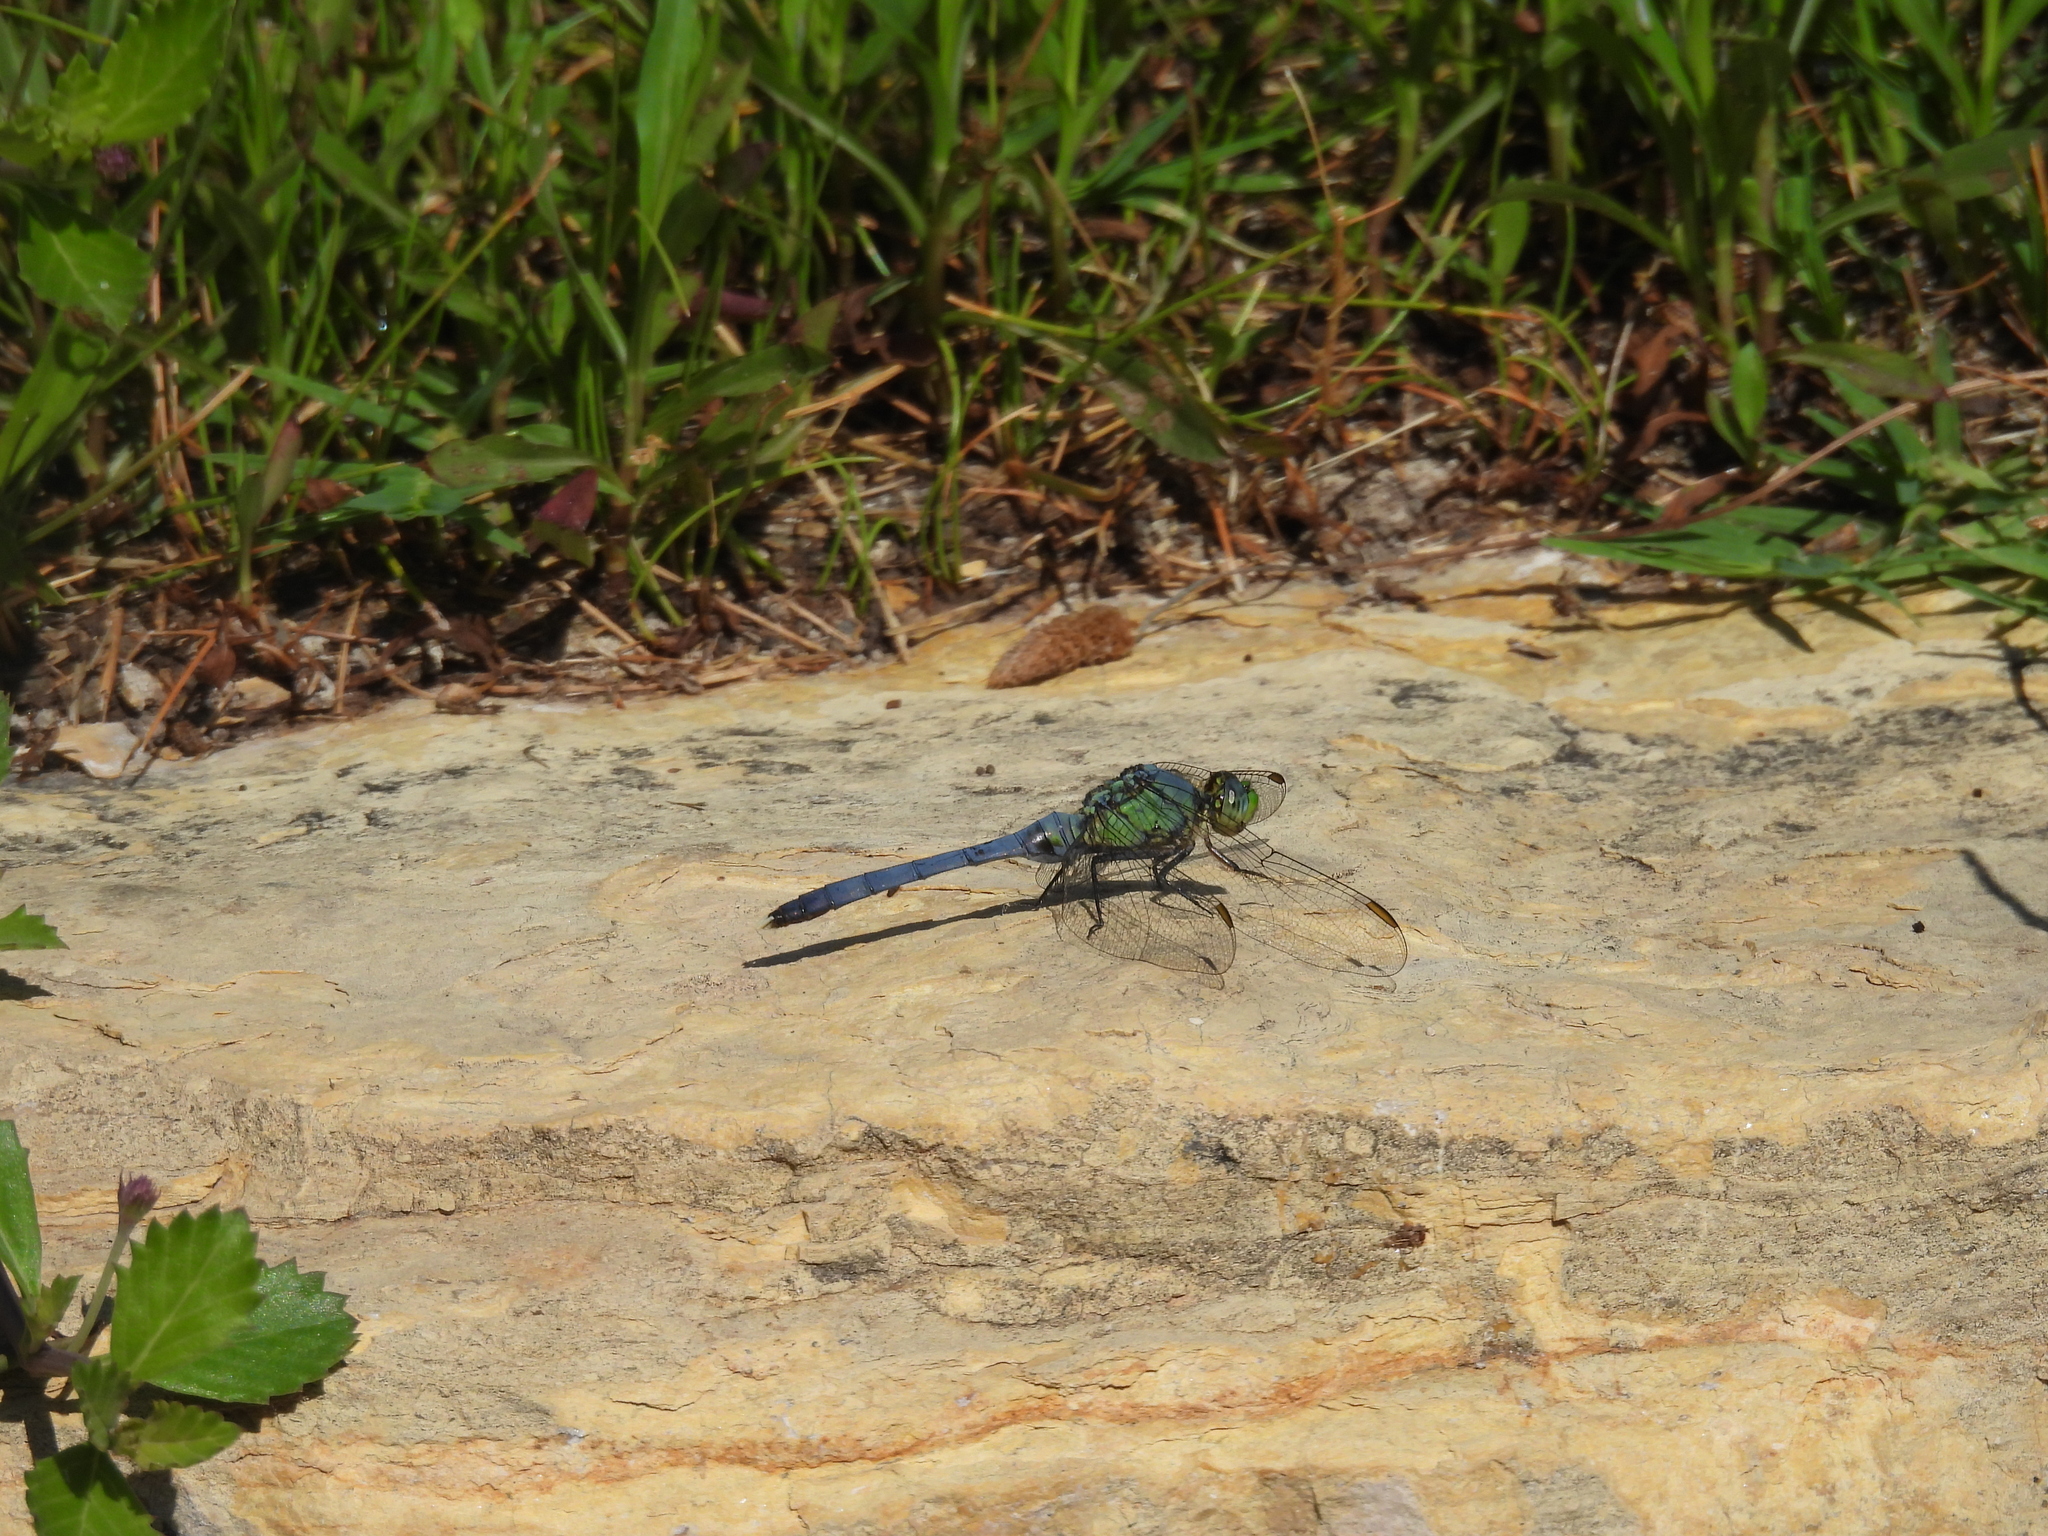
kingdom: Animalia
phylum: Arthropoda
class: Insecta
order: Odonata
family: Libellulidae
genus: Erythemis
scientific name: Erythemis simplicicollis
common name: Eastern pondhawk
